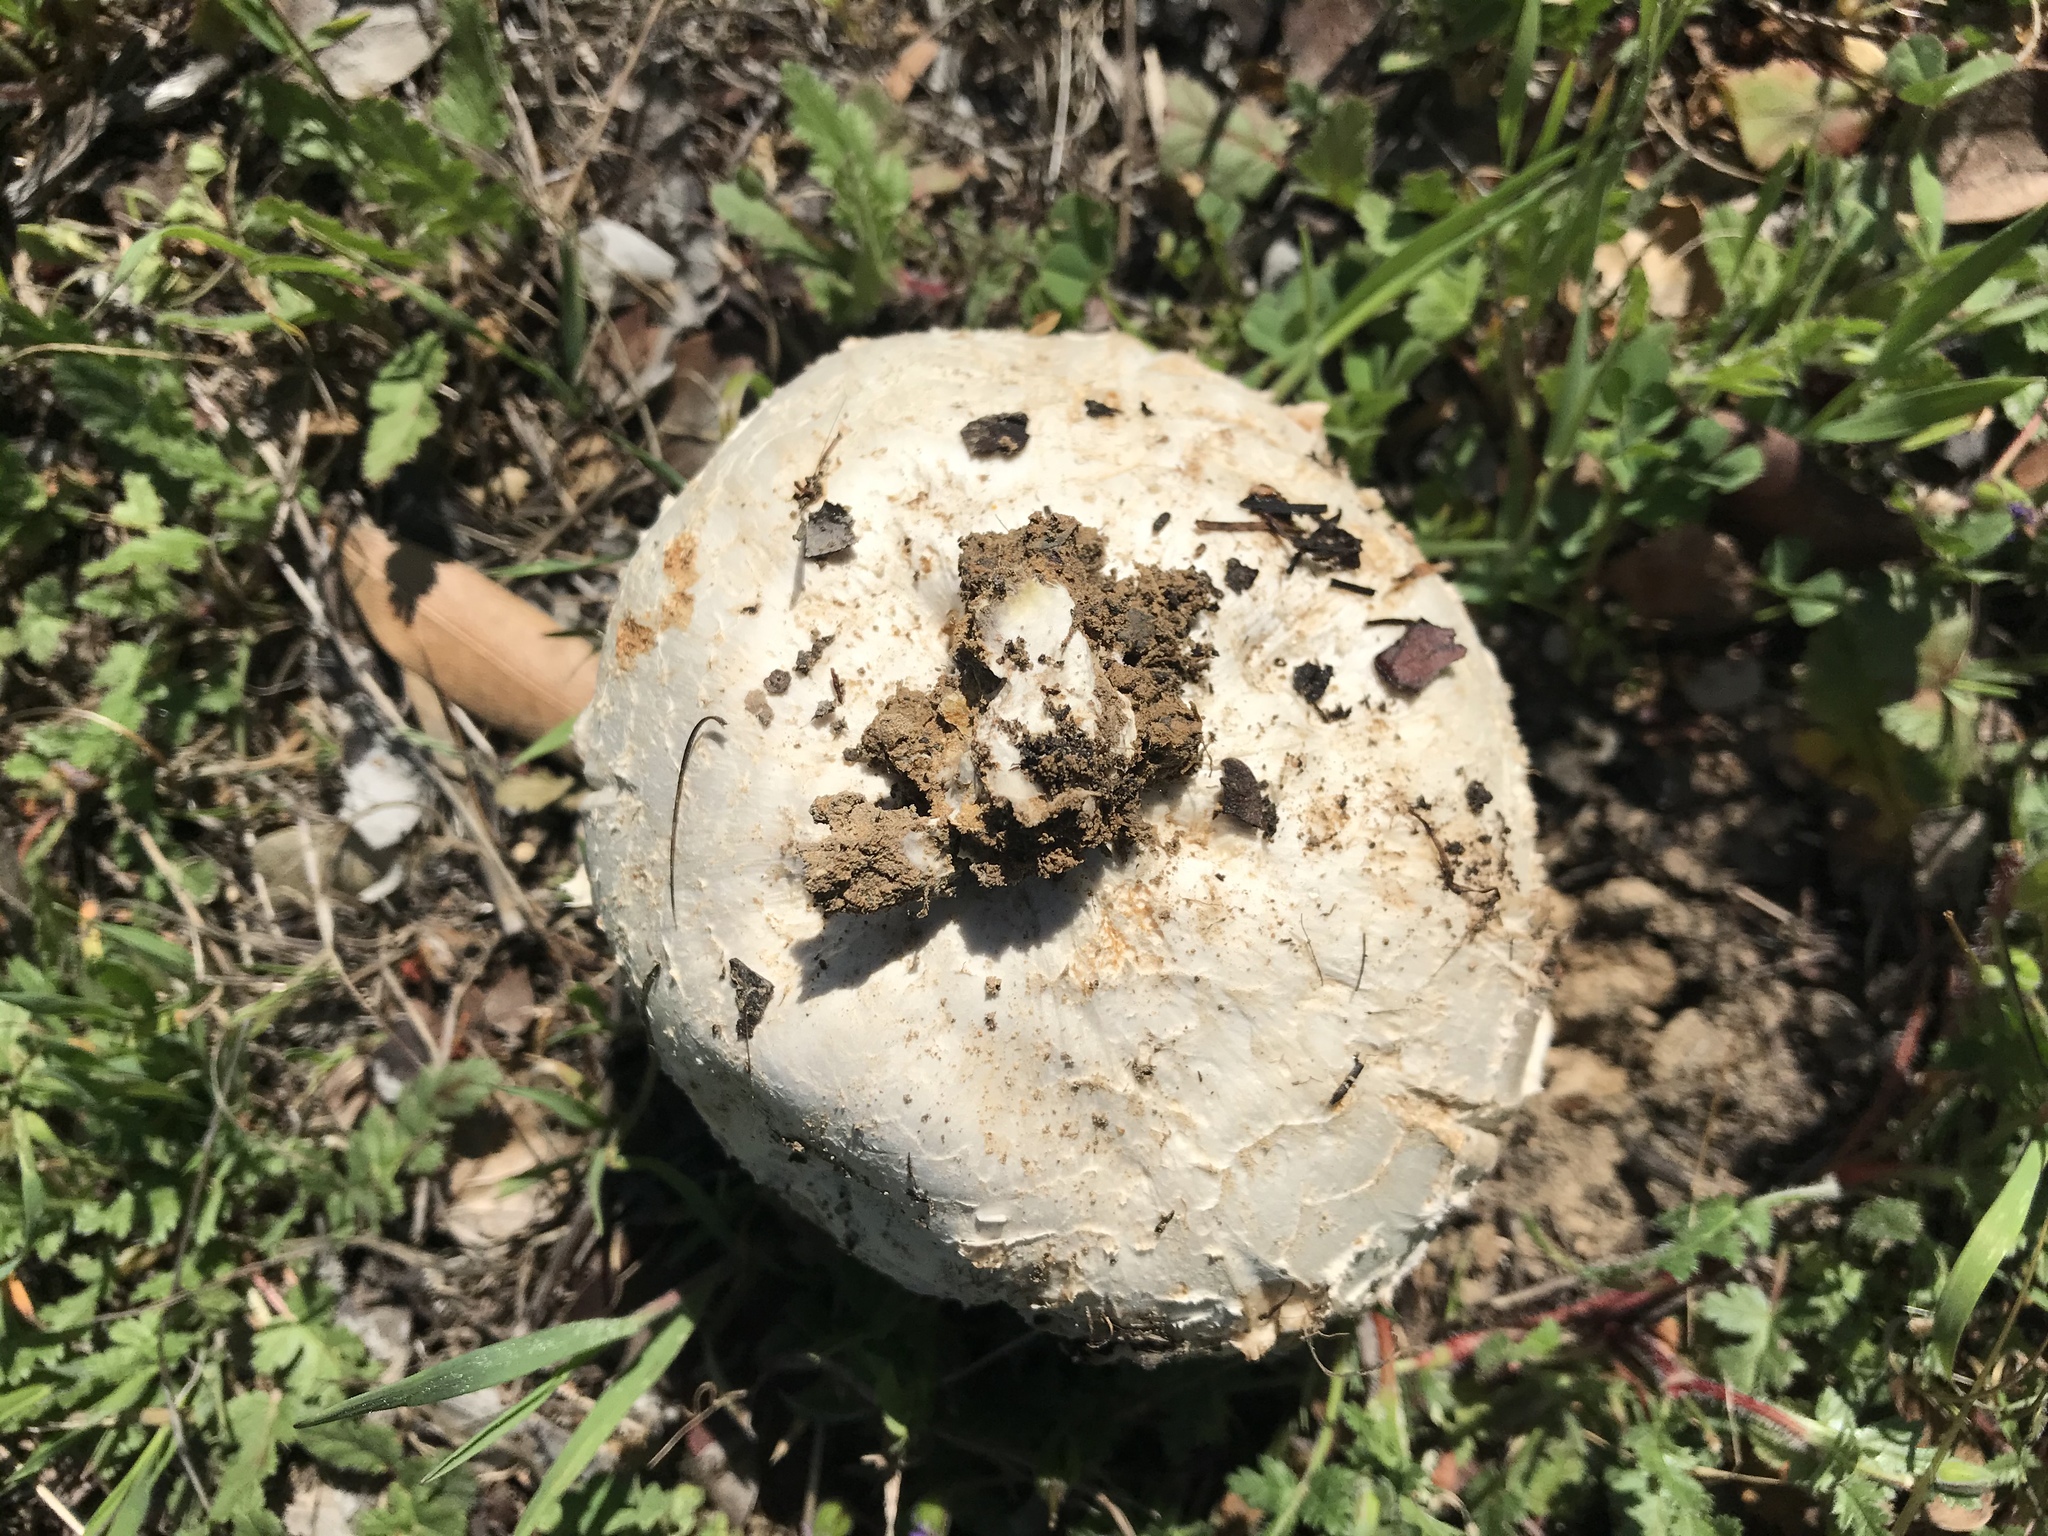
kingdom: Fungi
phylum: Basidiomycota
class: Agaricomycetes
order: Agaricales
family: Lycoperdaceae
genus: Calvatia
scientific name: Calvatia booniana
